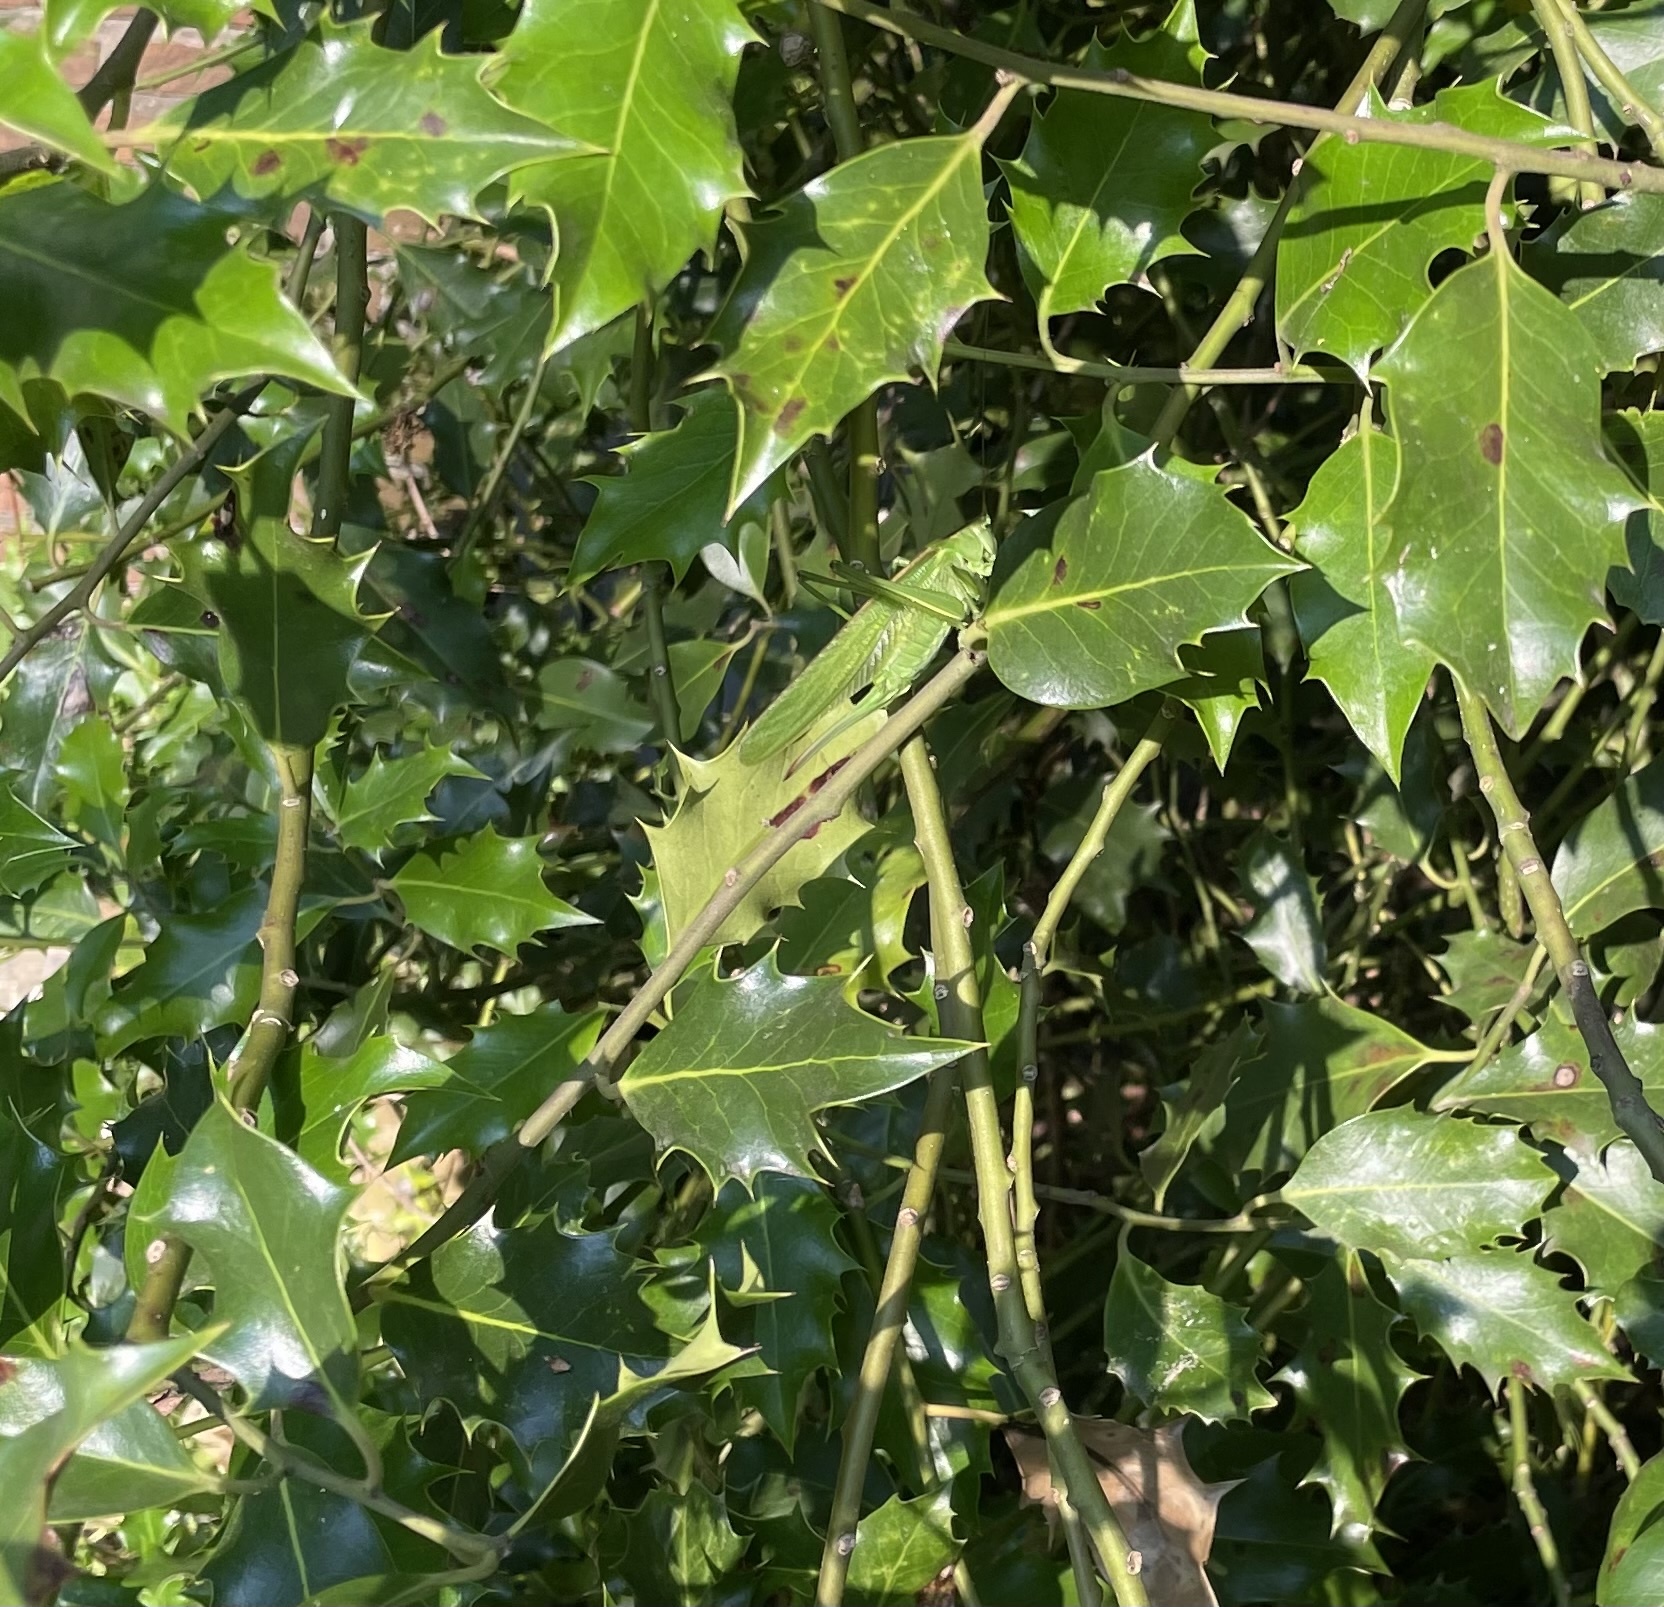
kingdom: Animalia
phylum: Arthropoda
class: Insecta
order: Orthoptera
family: Tettigoniidae
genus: Tettigonia
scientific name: Tettigonia viridissima
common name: Great green bush-cricket
